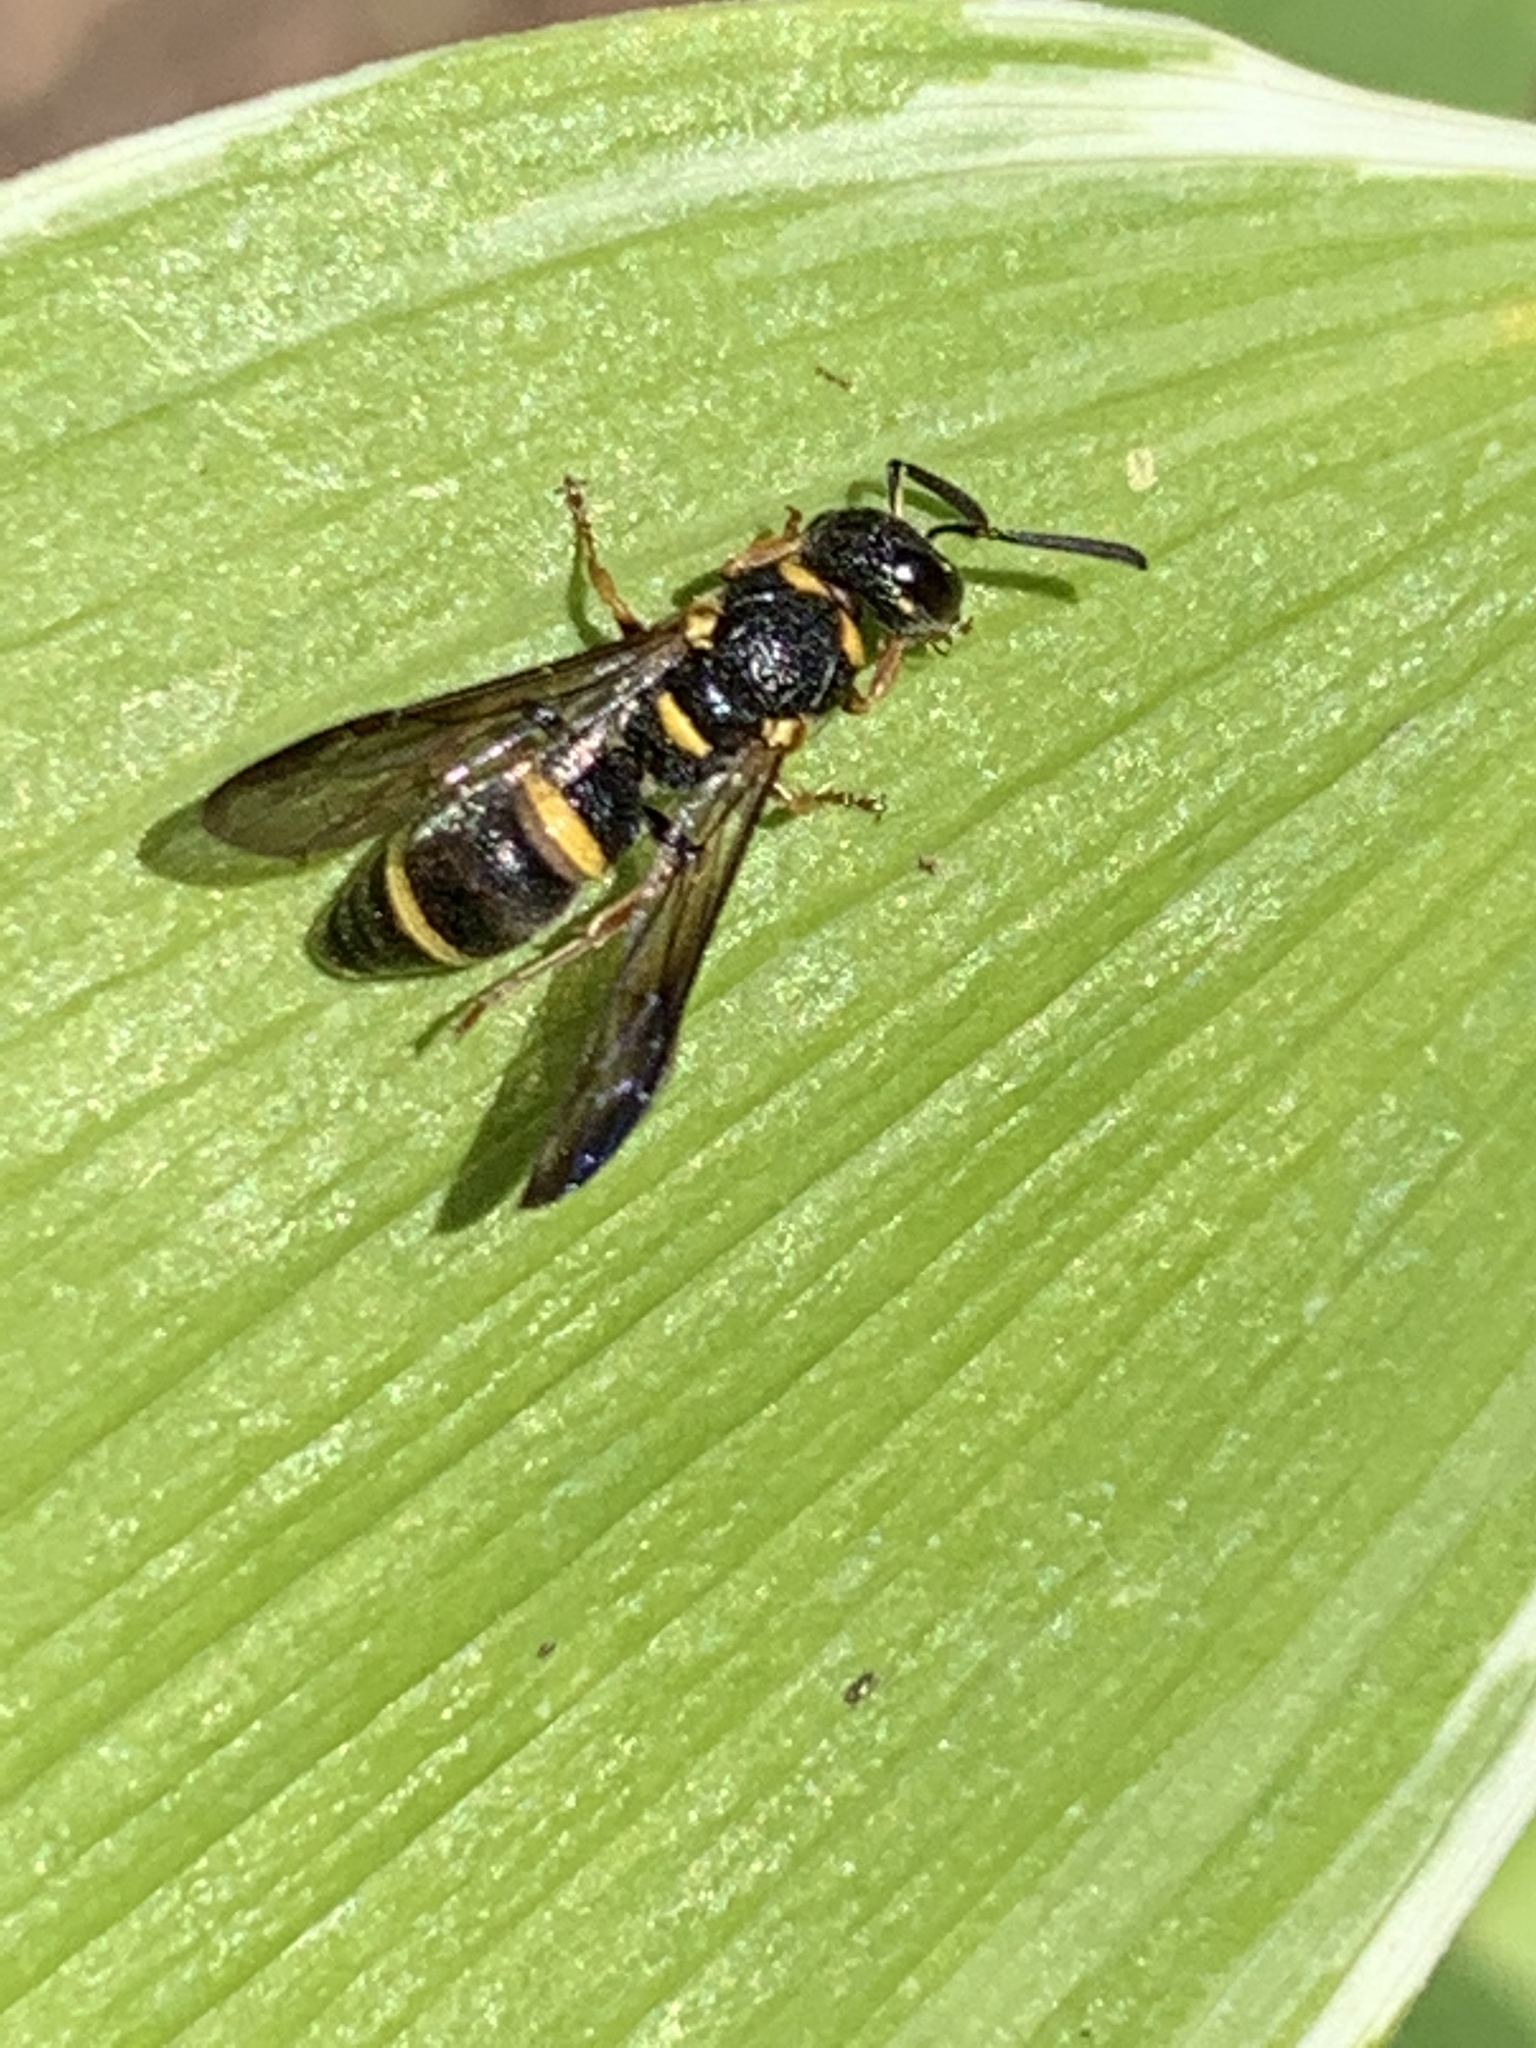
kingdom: Animalia
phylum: Arthropoda
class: Insecta
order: Hymenoptera
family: Eumenidae
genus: Parancistrocerus
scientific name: Parancistrocerus perennis
